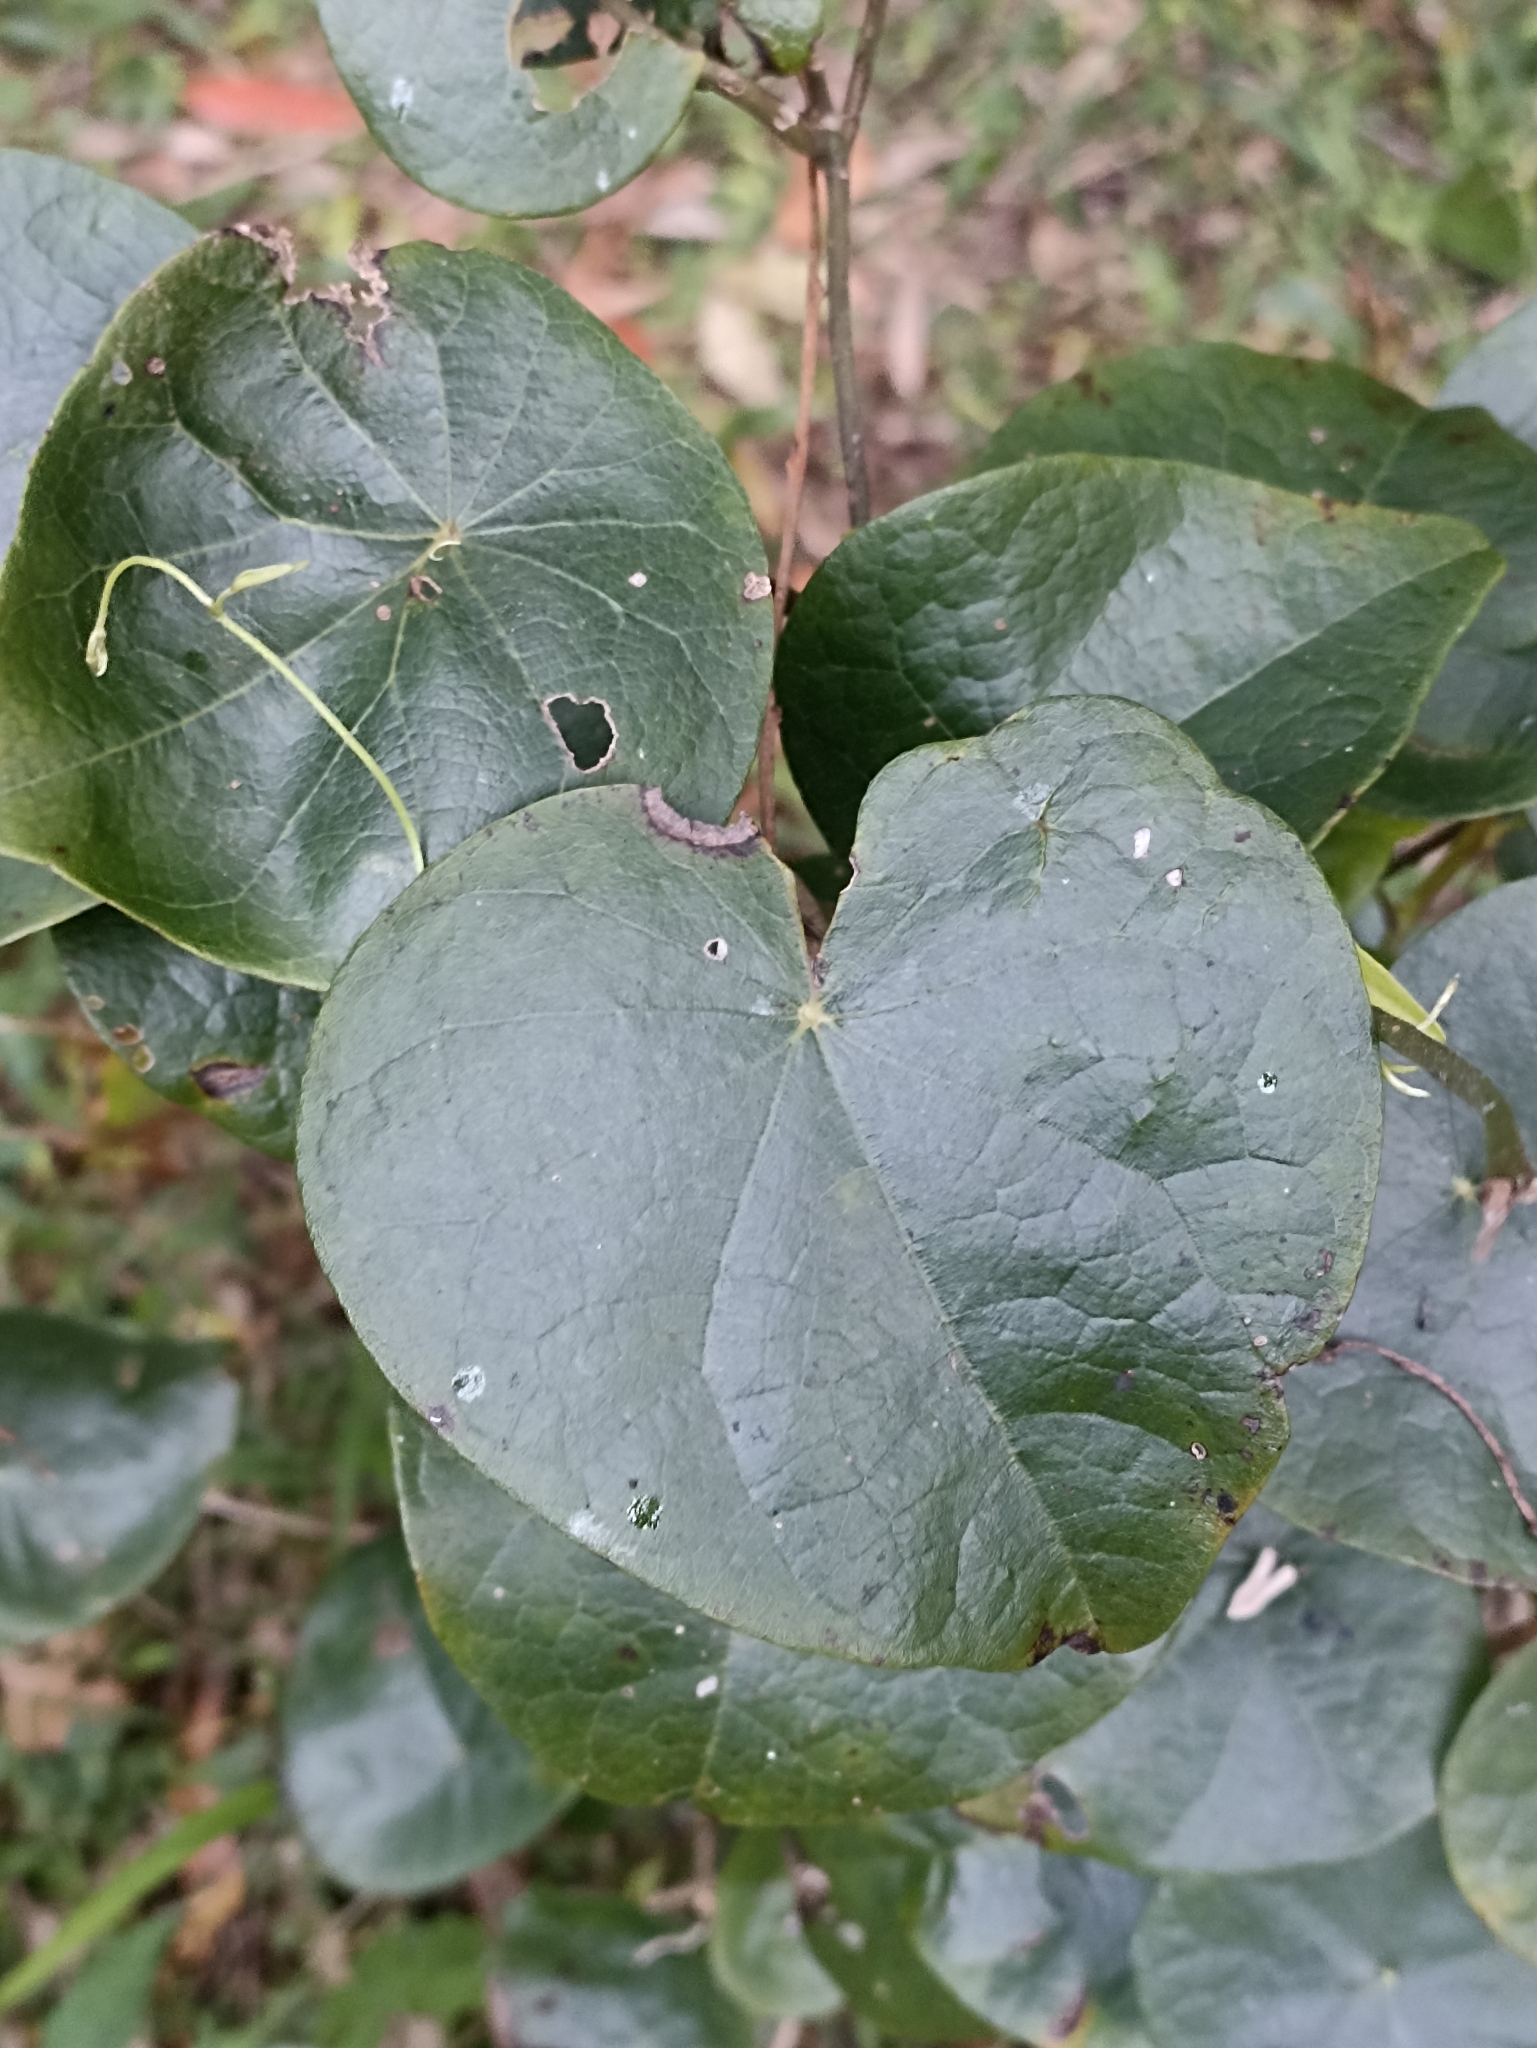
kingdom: Plantae
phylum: Tracheophyta
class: Magnoliopsida
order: Ranunculales
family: Menispermaceae
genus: Stephania
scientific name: Stephania japonica
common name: Snake vine
